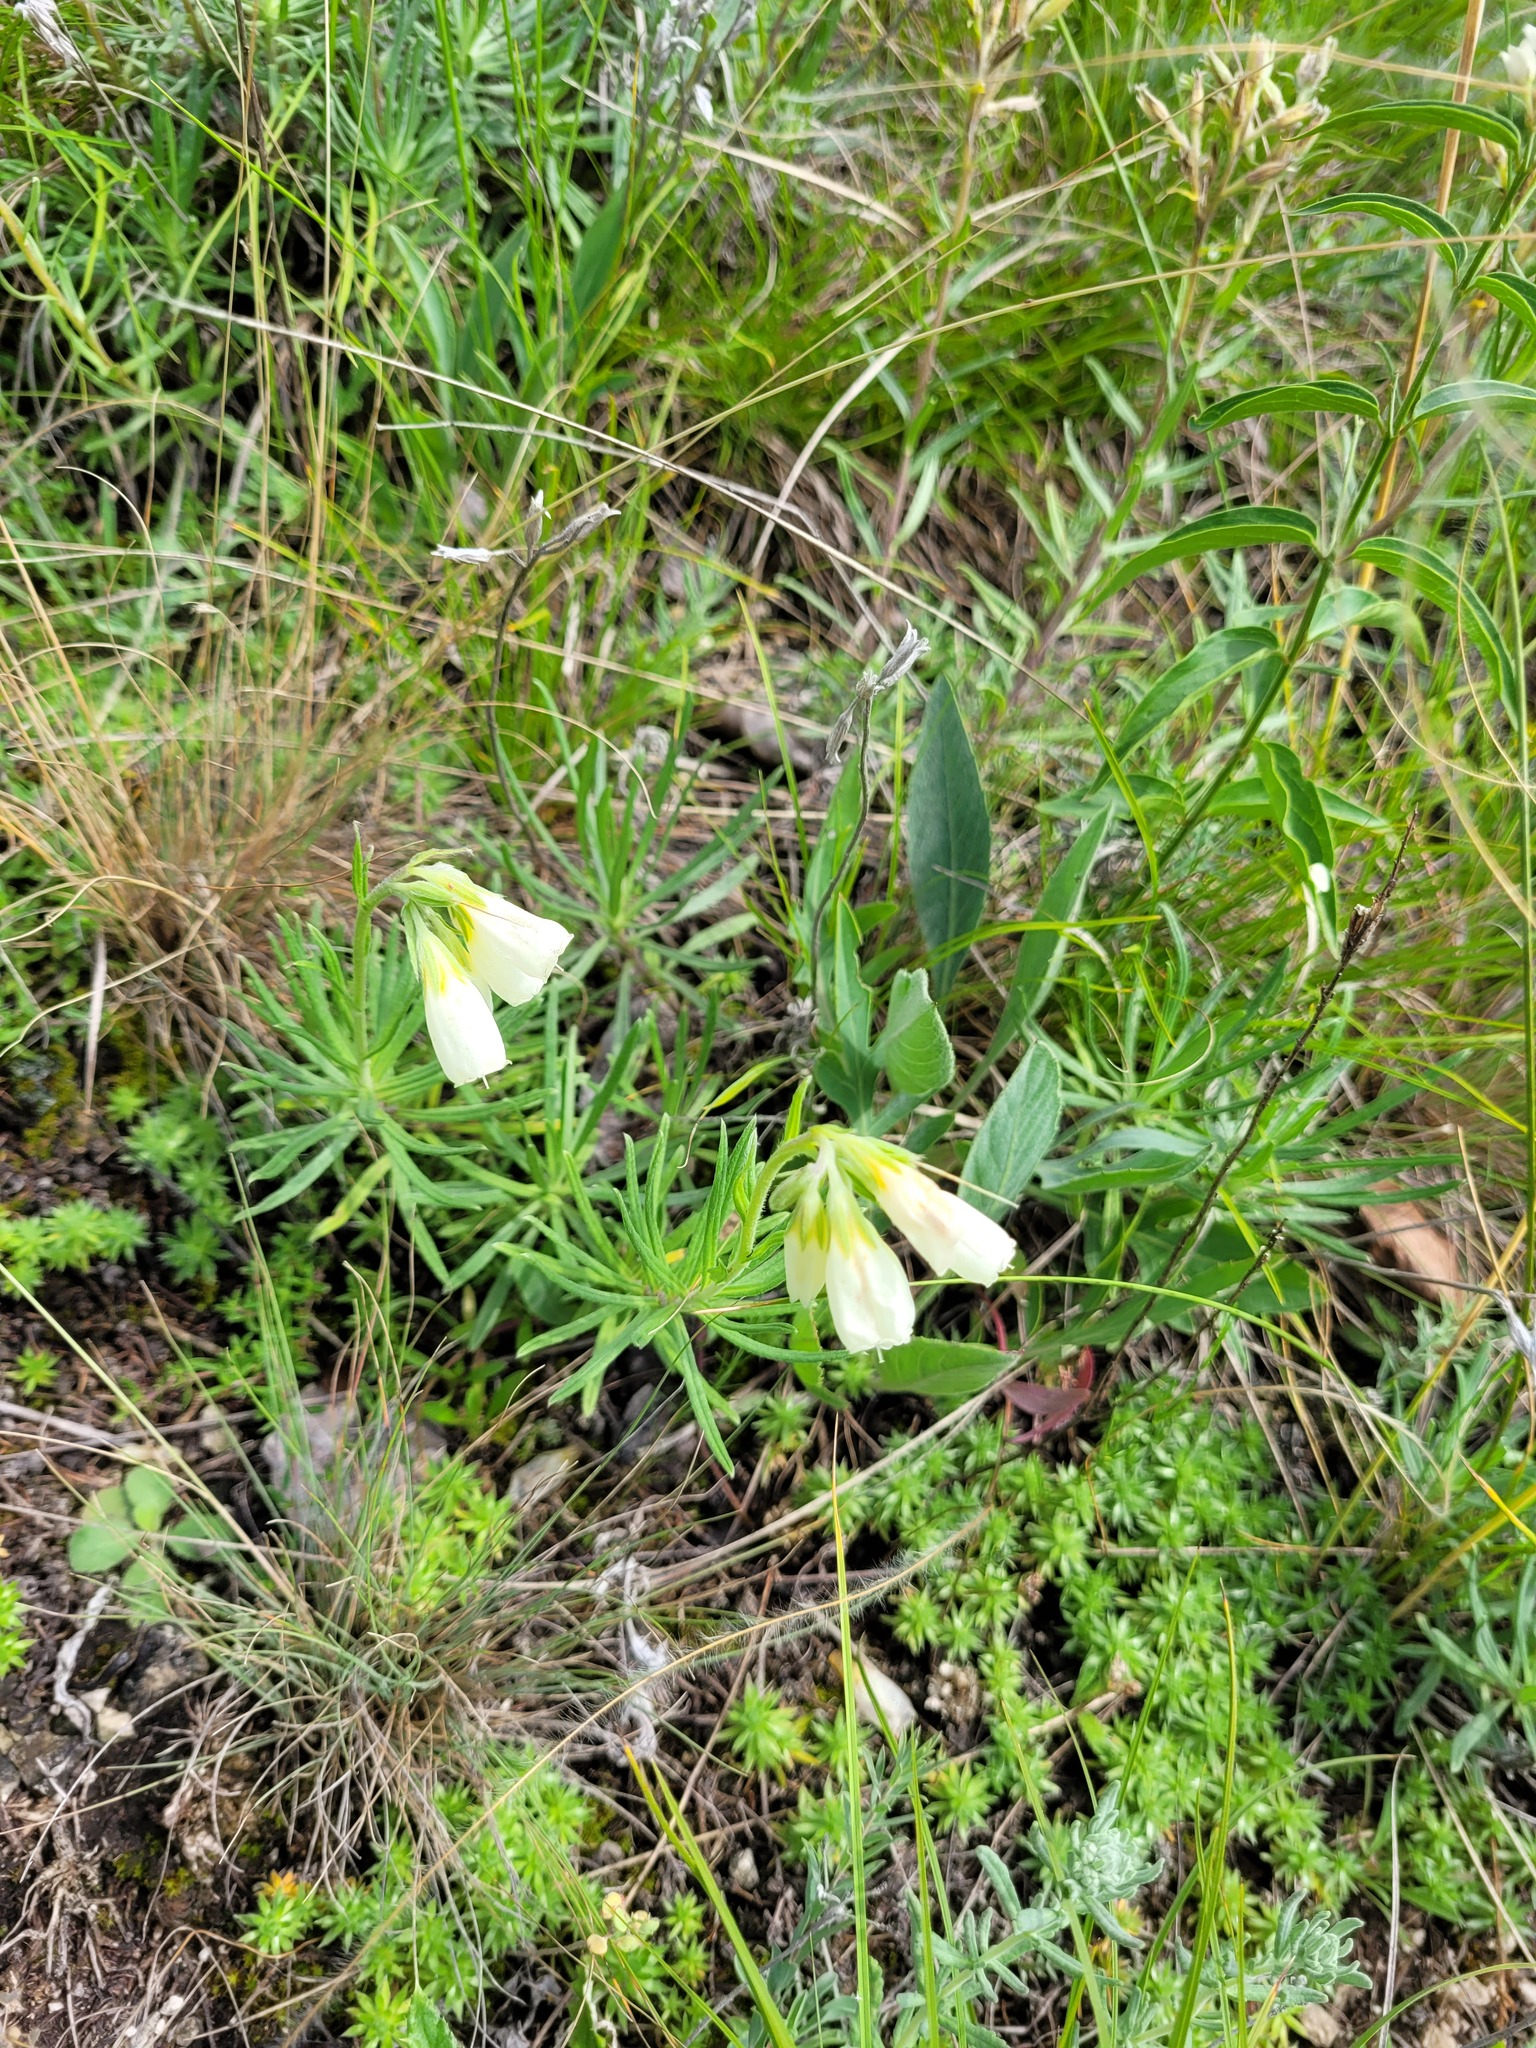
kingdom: Plantae
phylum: Tracheophyta
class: Magnoliopsida
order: Boraginales
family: Boraginaceae
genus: Onosma
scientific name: Onosma simplicissima
